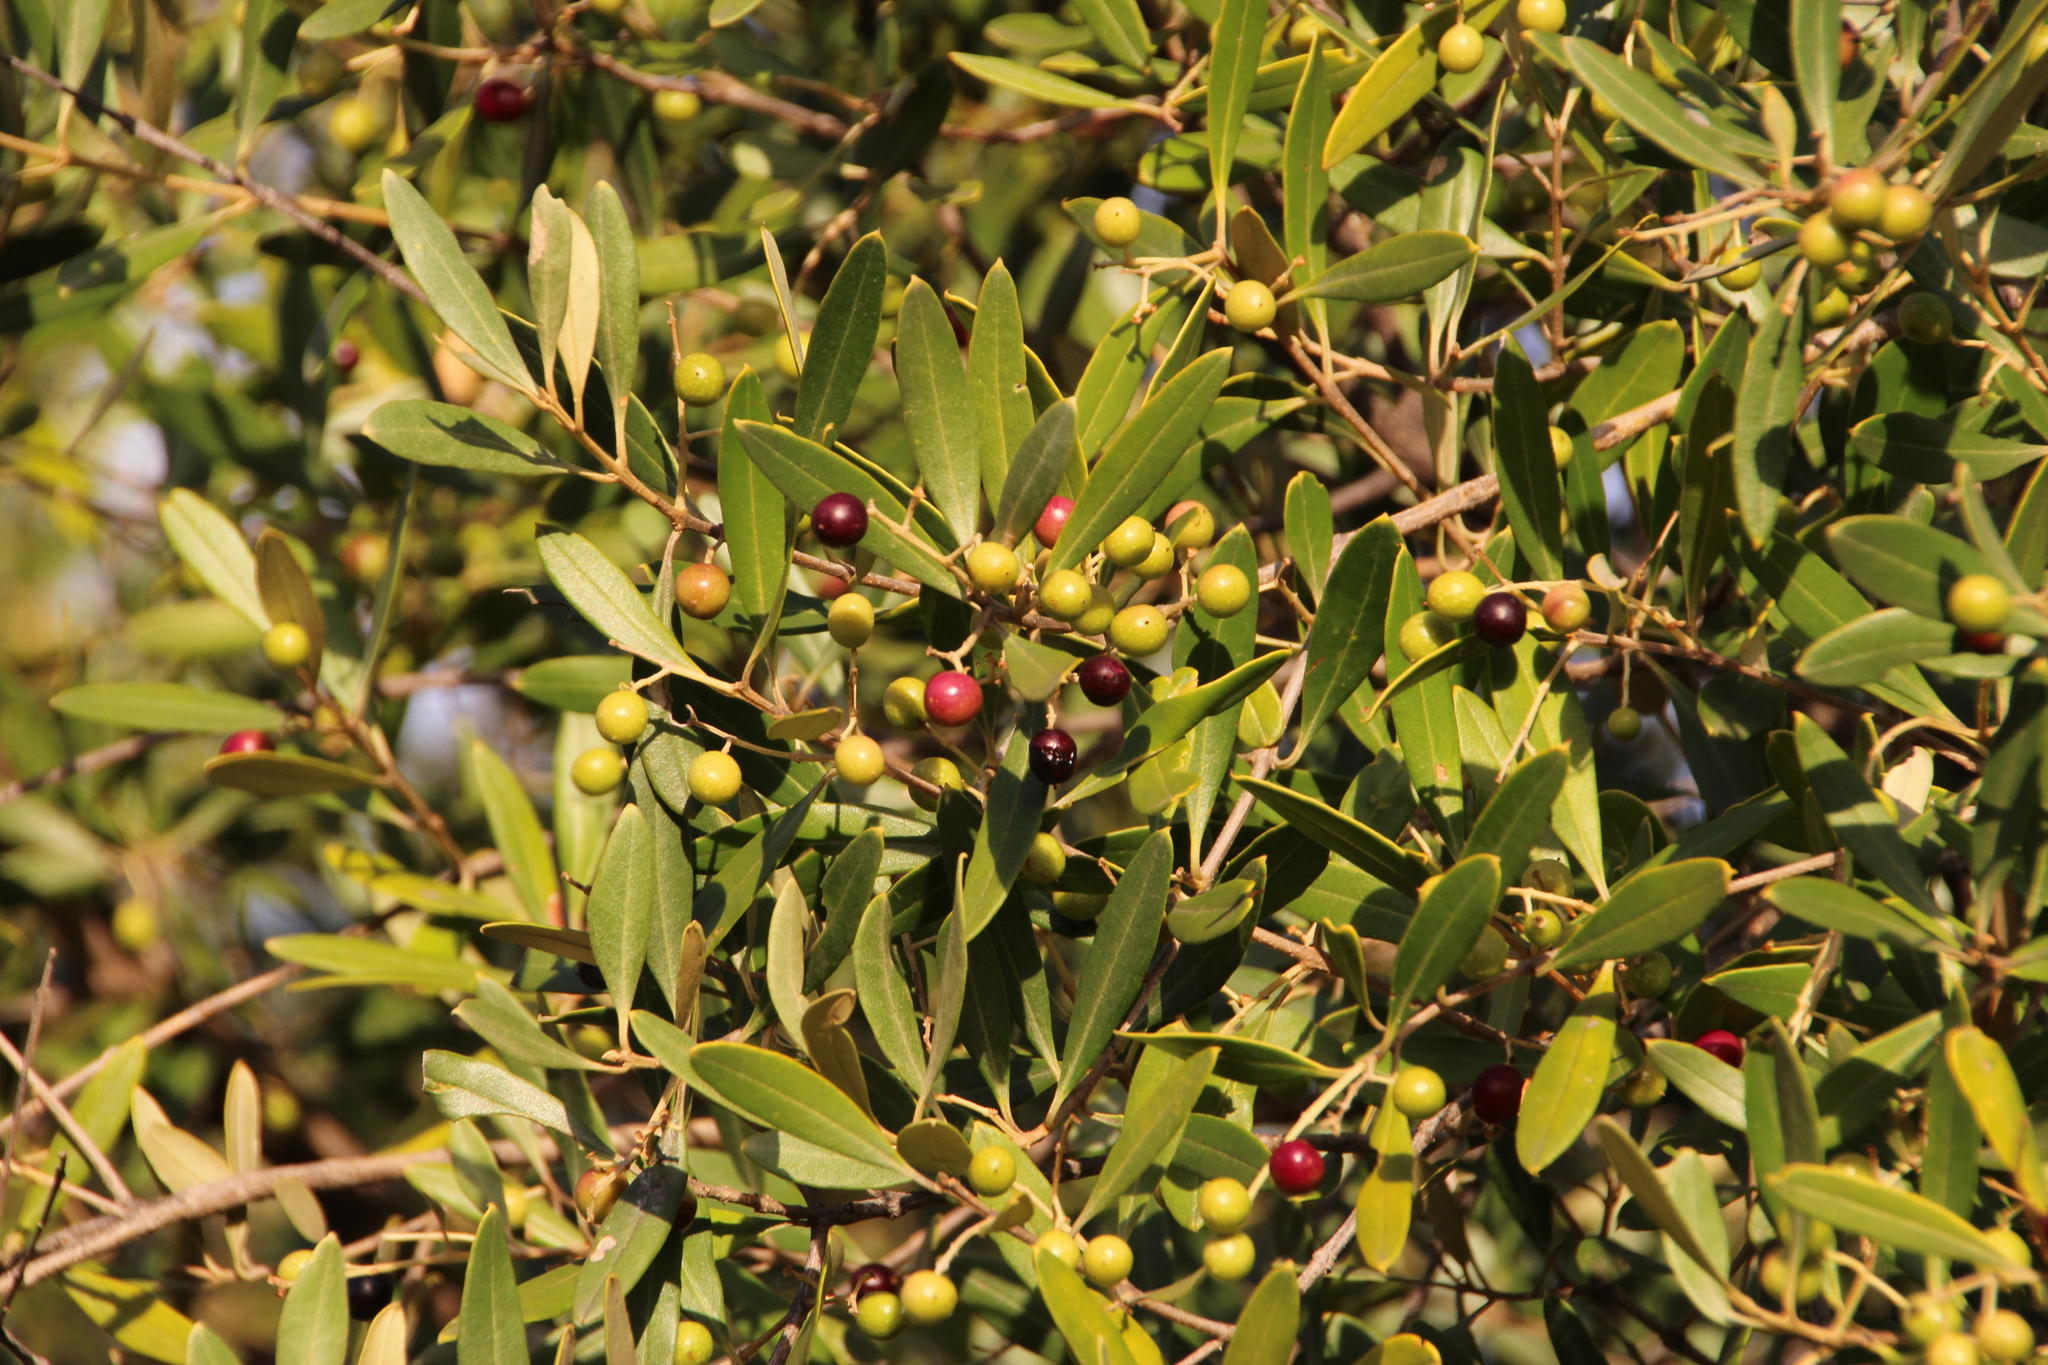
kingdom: Plantae
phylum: Tracheophyta
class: Magnoliopsida
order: Lamiales
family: Oleaceae
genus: Olea
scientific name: Olea europaea
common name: Olive
